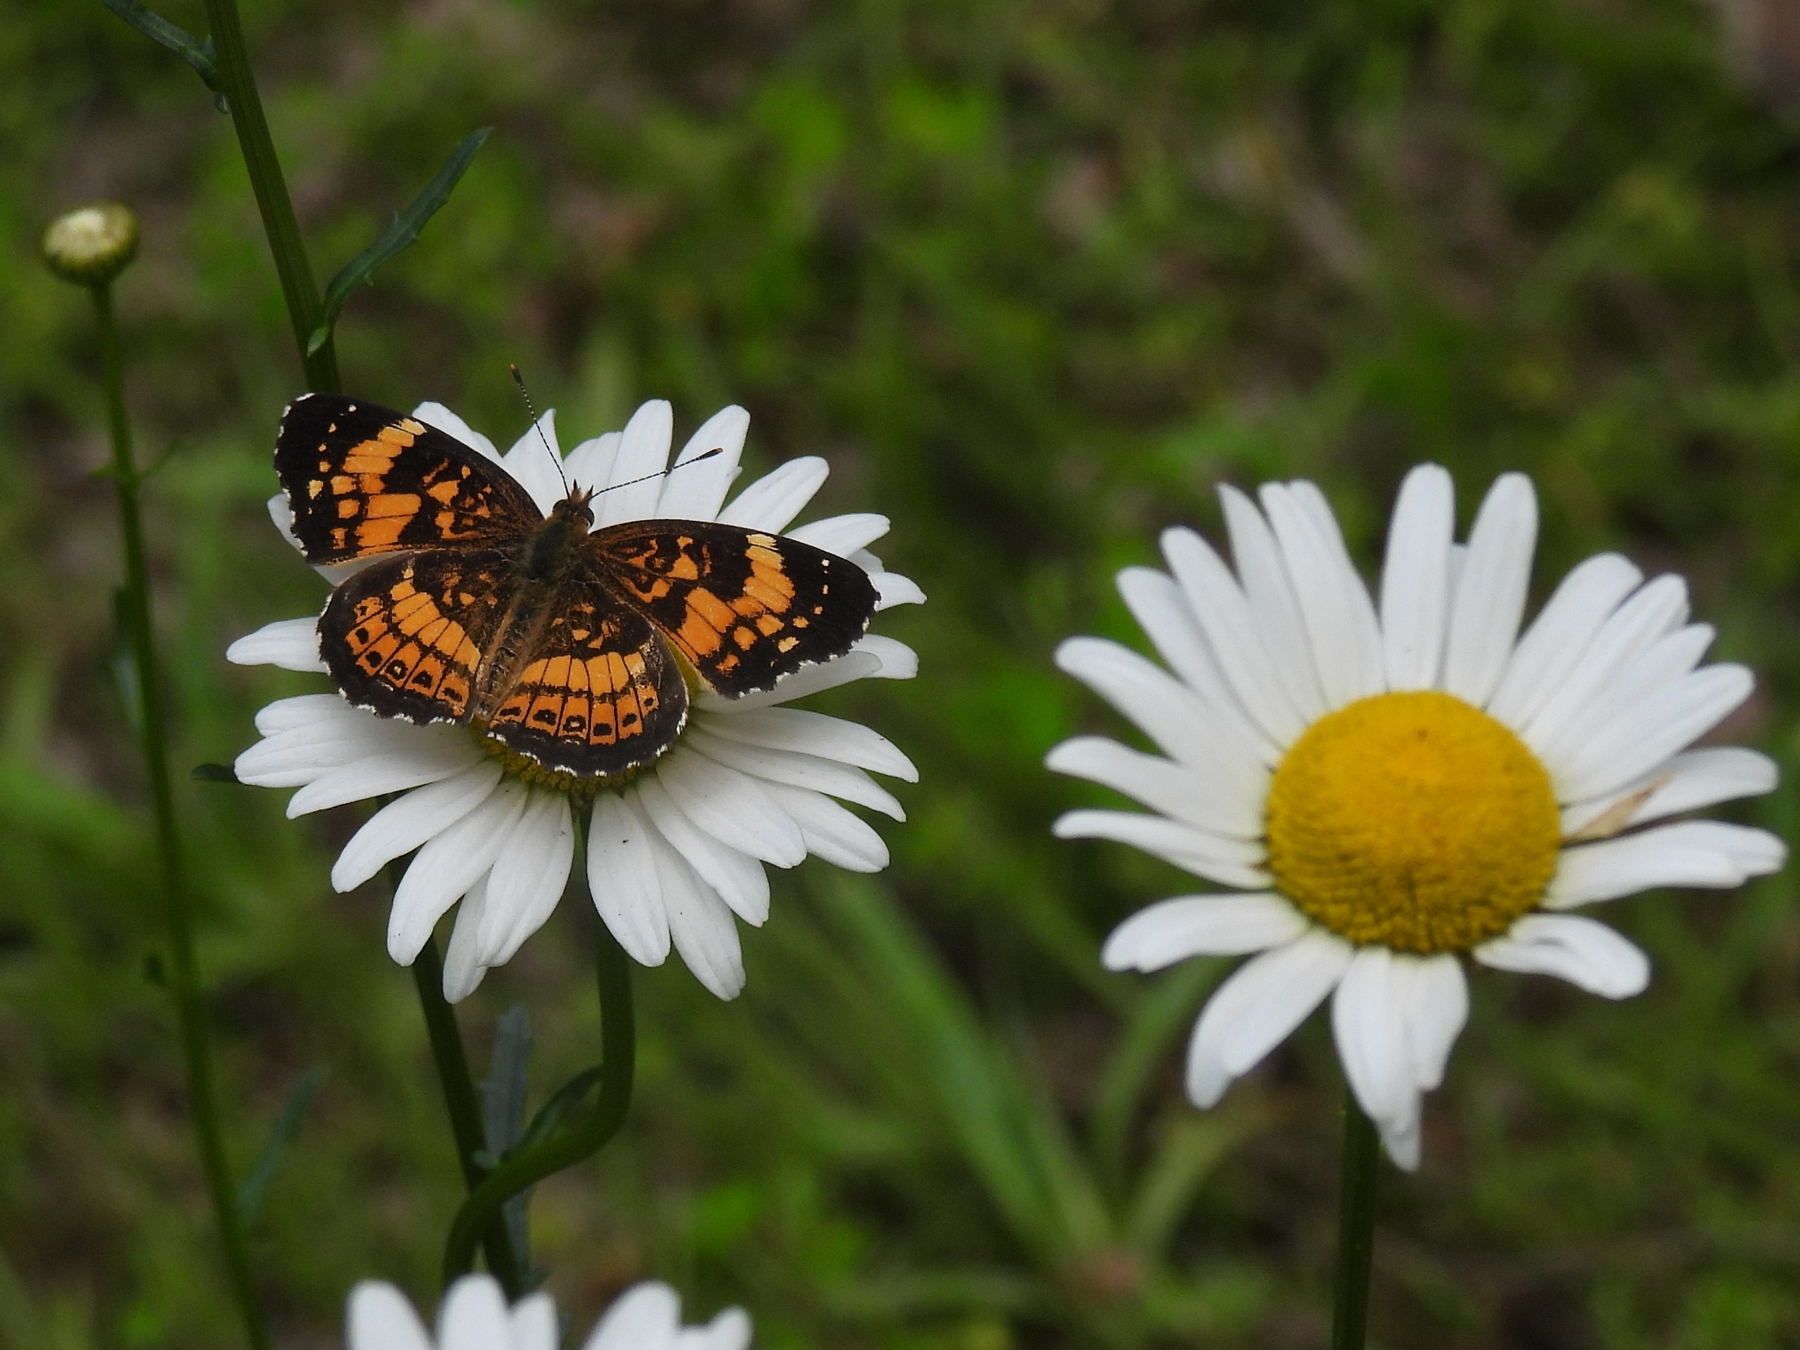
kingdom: Animalia
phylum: Arthropoda
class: Insecta
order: Lepidoptera
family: Nymphalidae
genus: Chlosyne
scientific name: Chlosyne nycteis
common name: Silvery checkerspot
